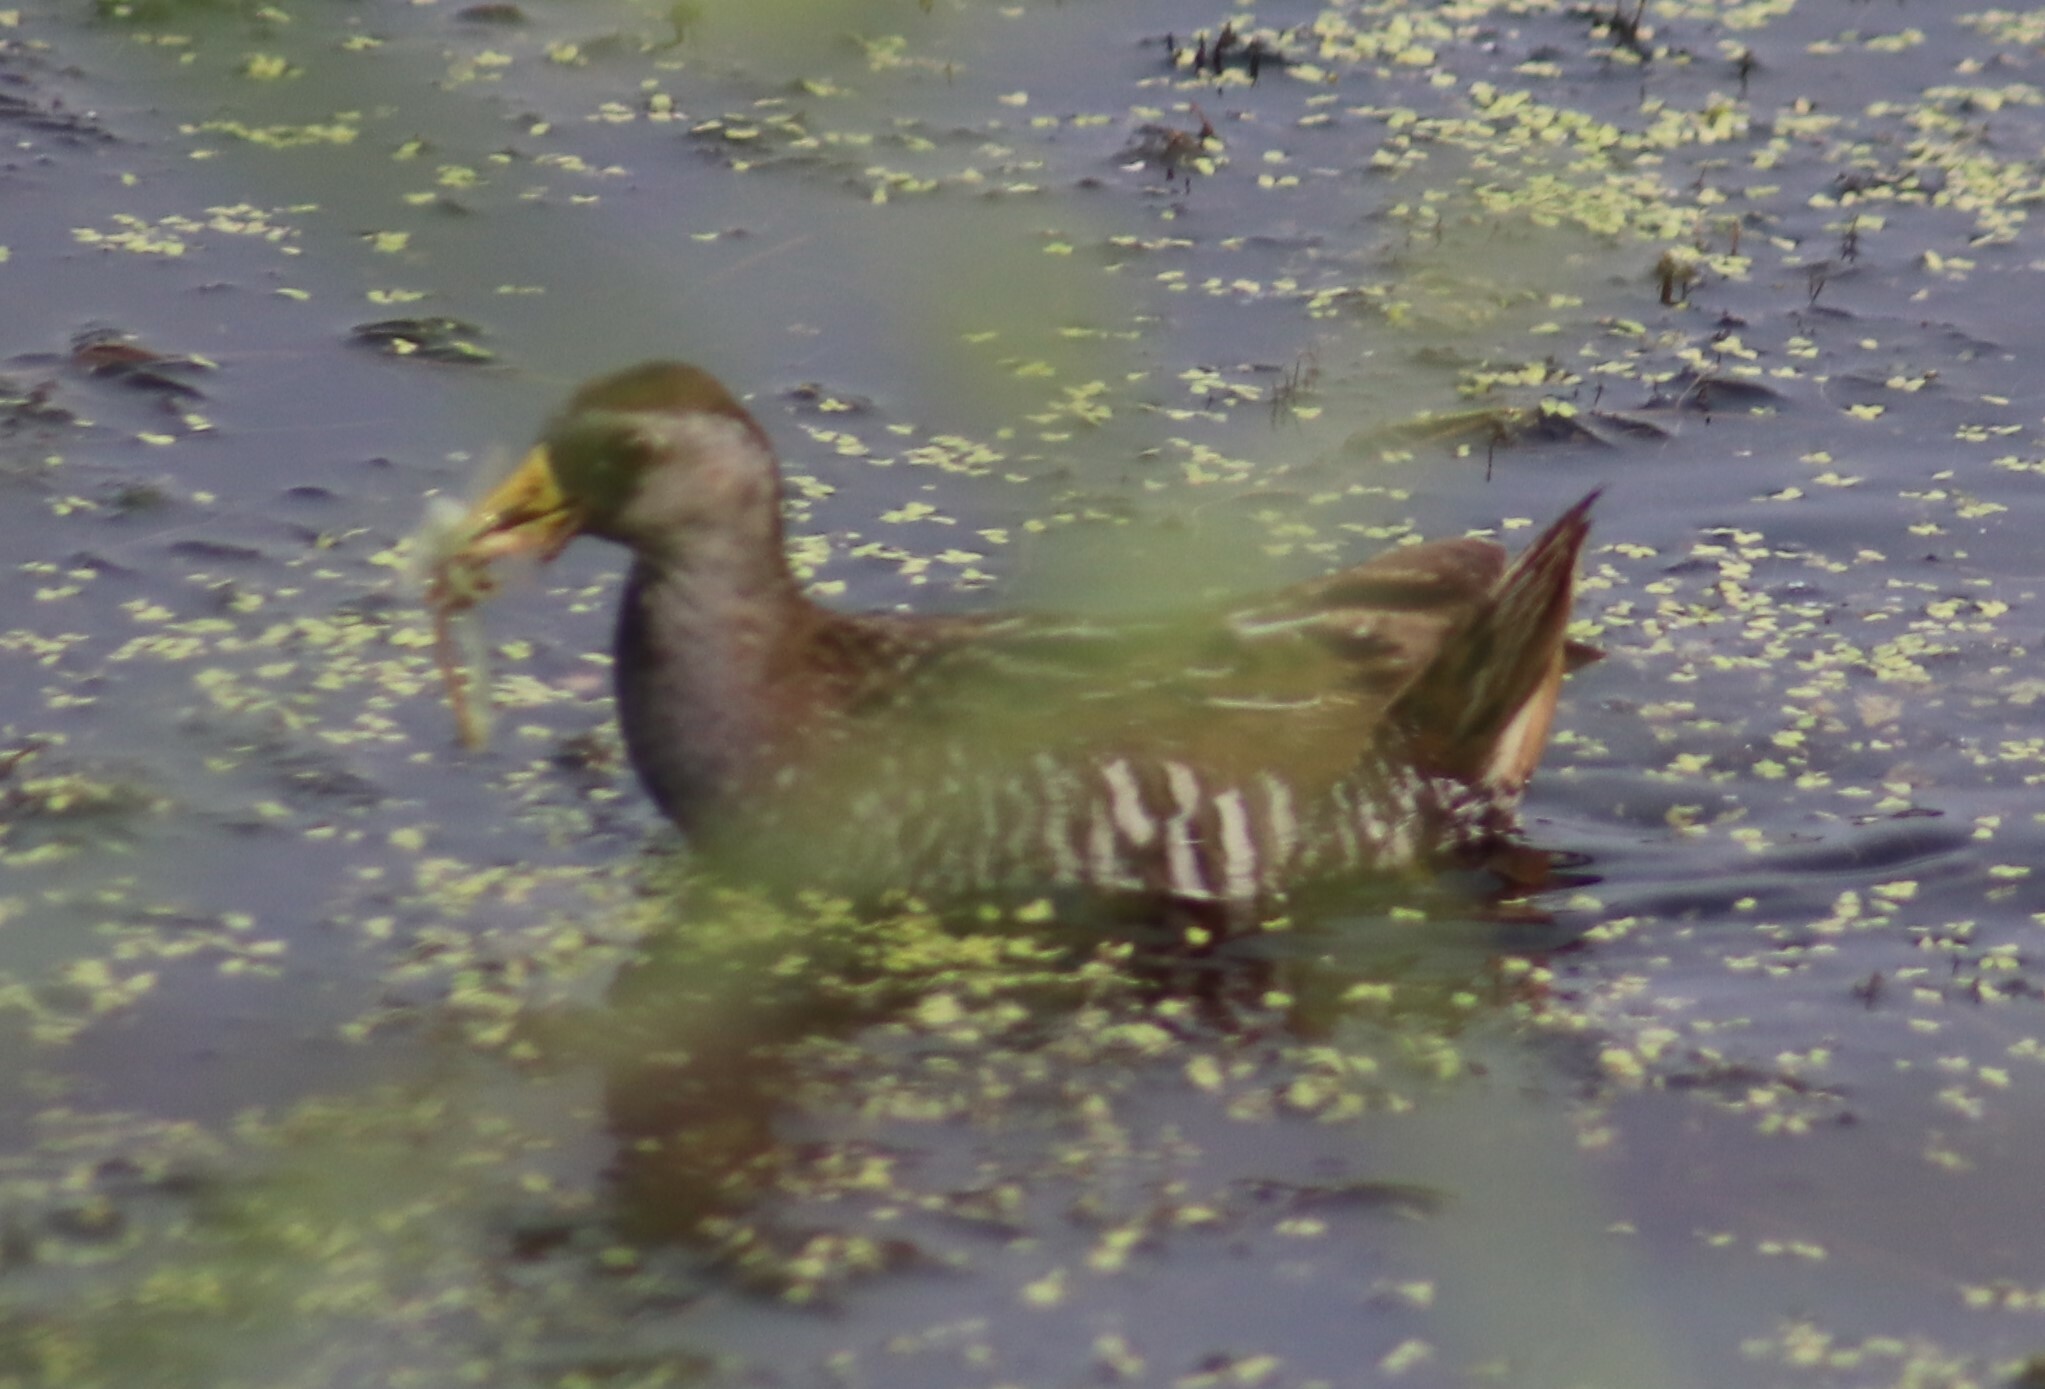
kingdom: Animalia
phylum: Chordata
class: Aves
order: Gruiformes
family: Rallidae
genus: Porzana
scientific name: Porzana carolina
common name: Sora
